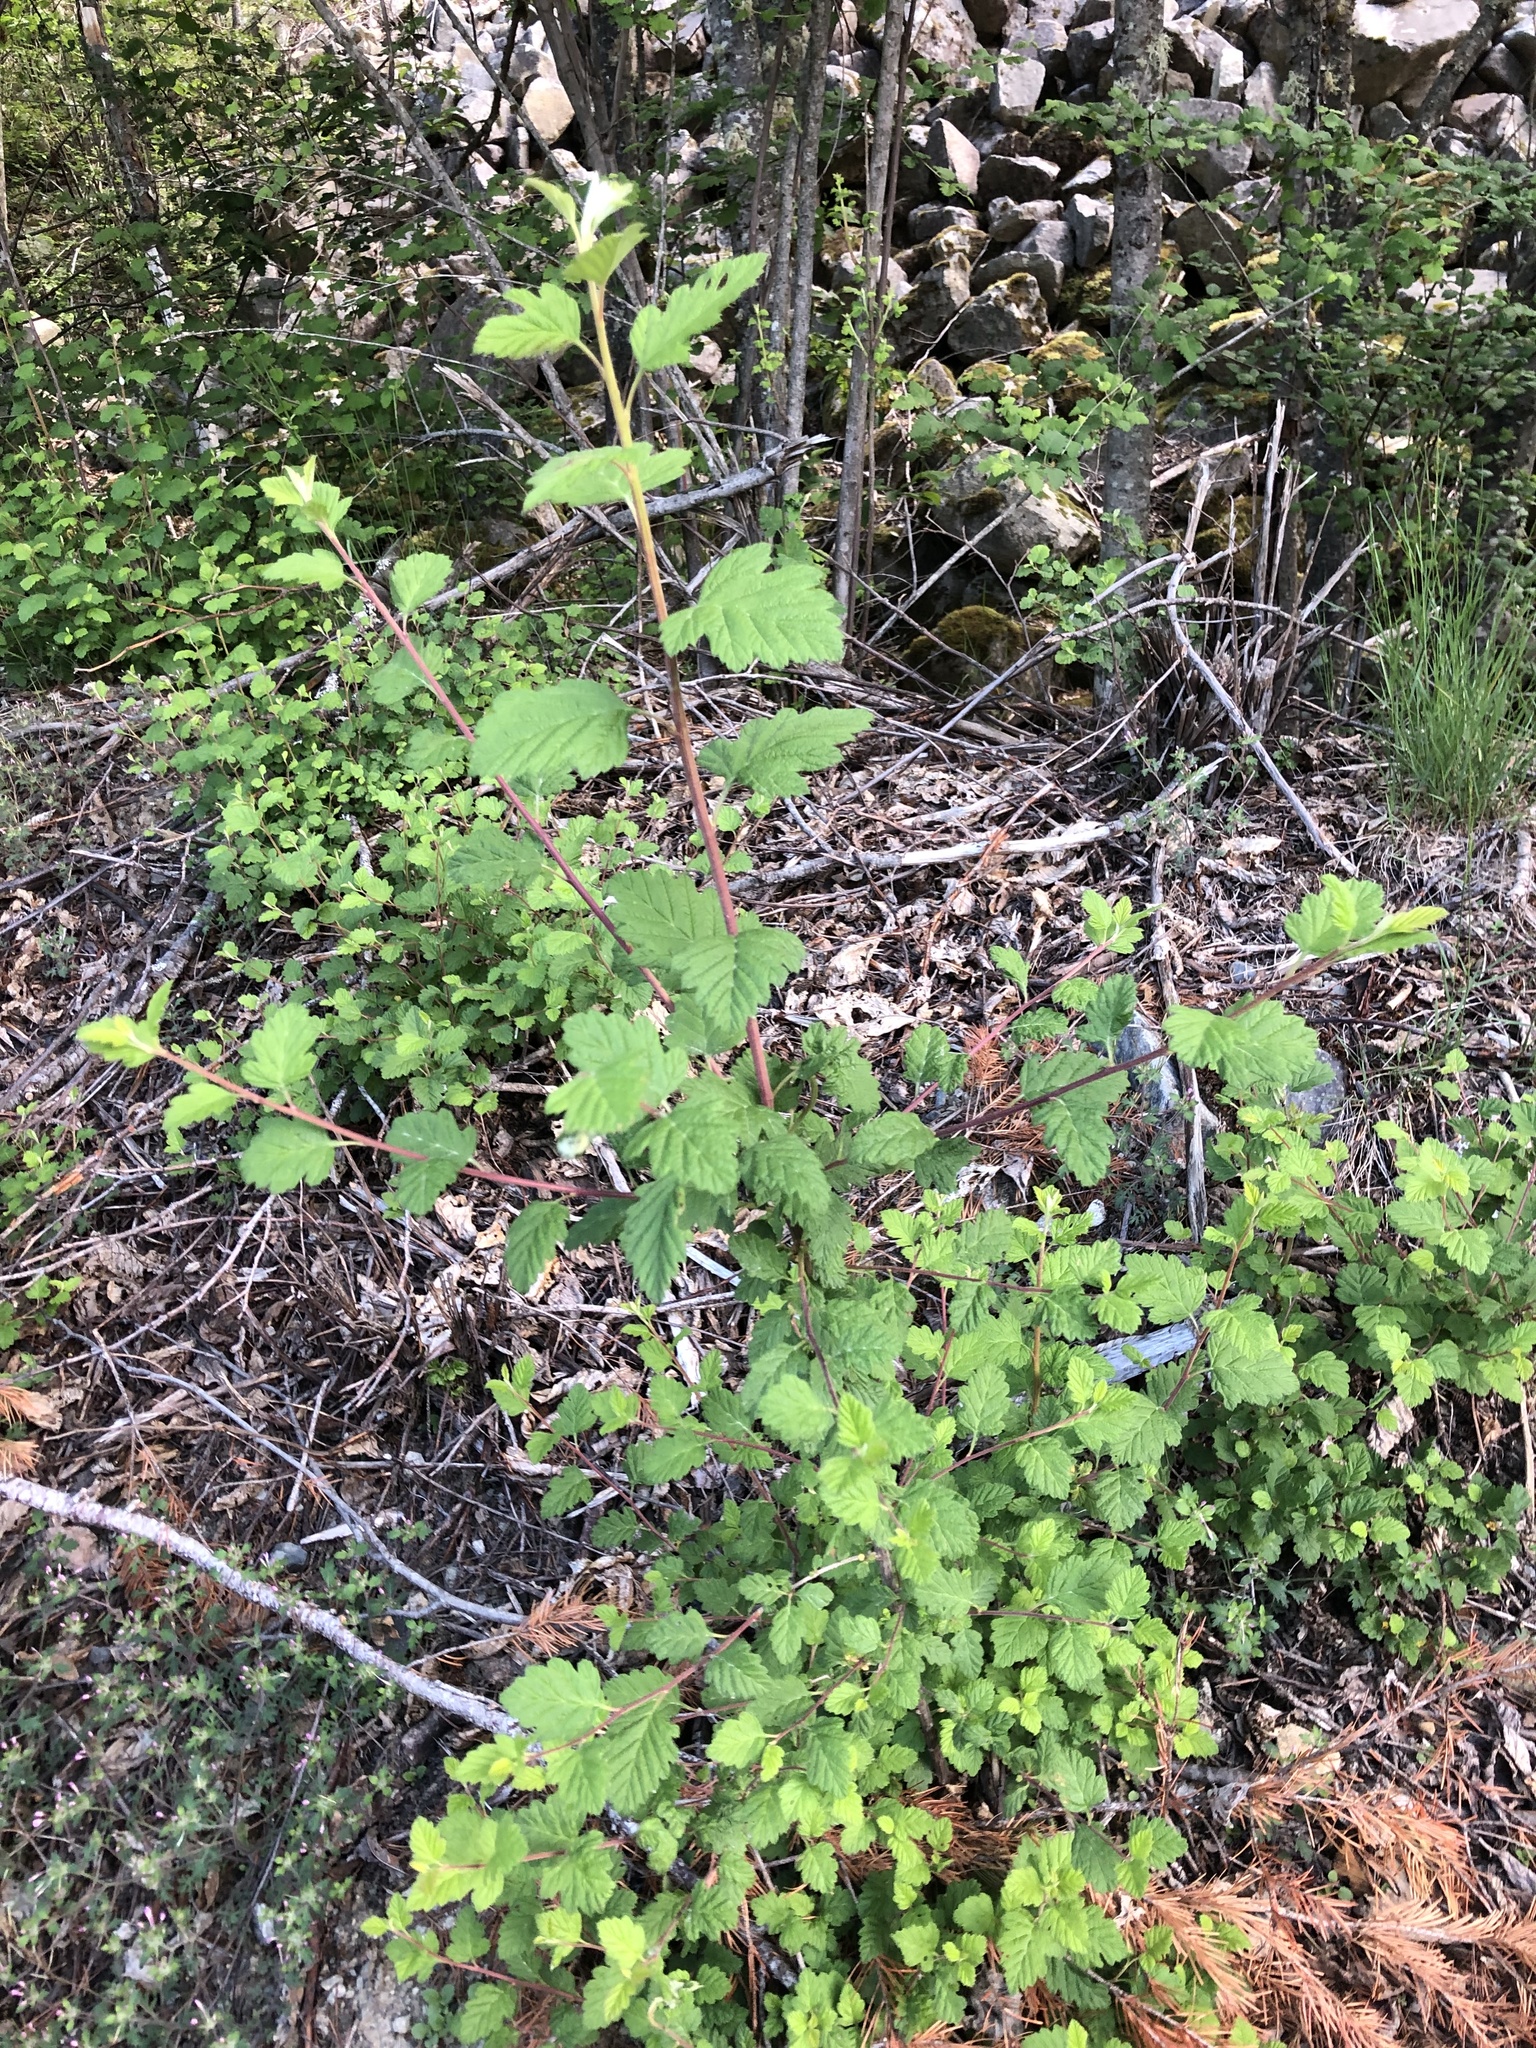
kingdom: Plantae
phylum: Tracheophyta
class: Magnoliopsida
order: Rosales
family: Rosaceae
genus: Holodiscus
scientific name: Holodiscus discolor
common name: Oceanspray
